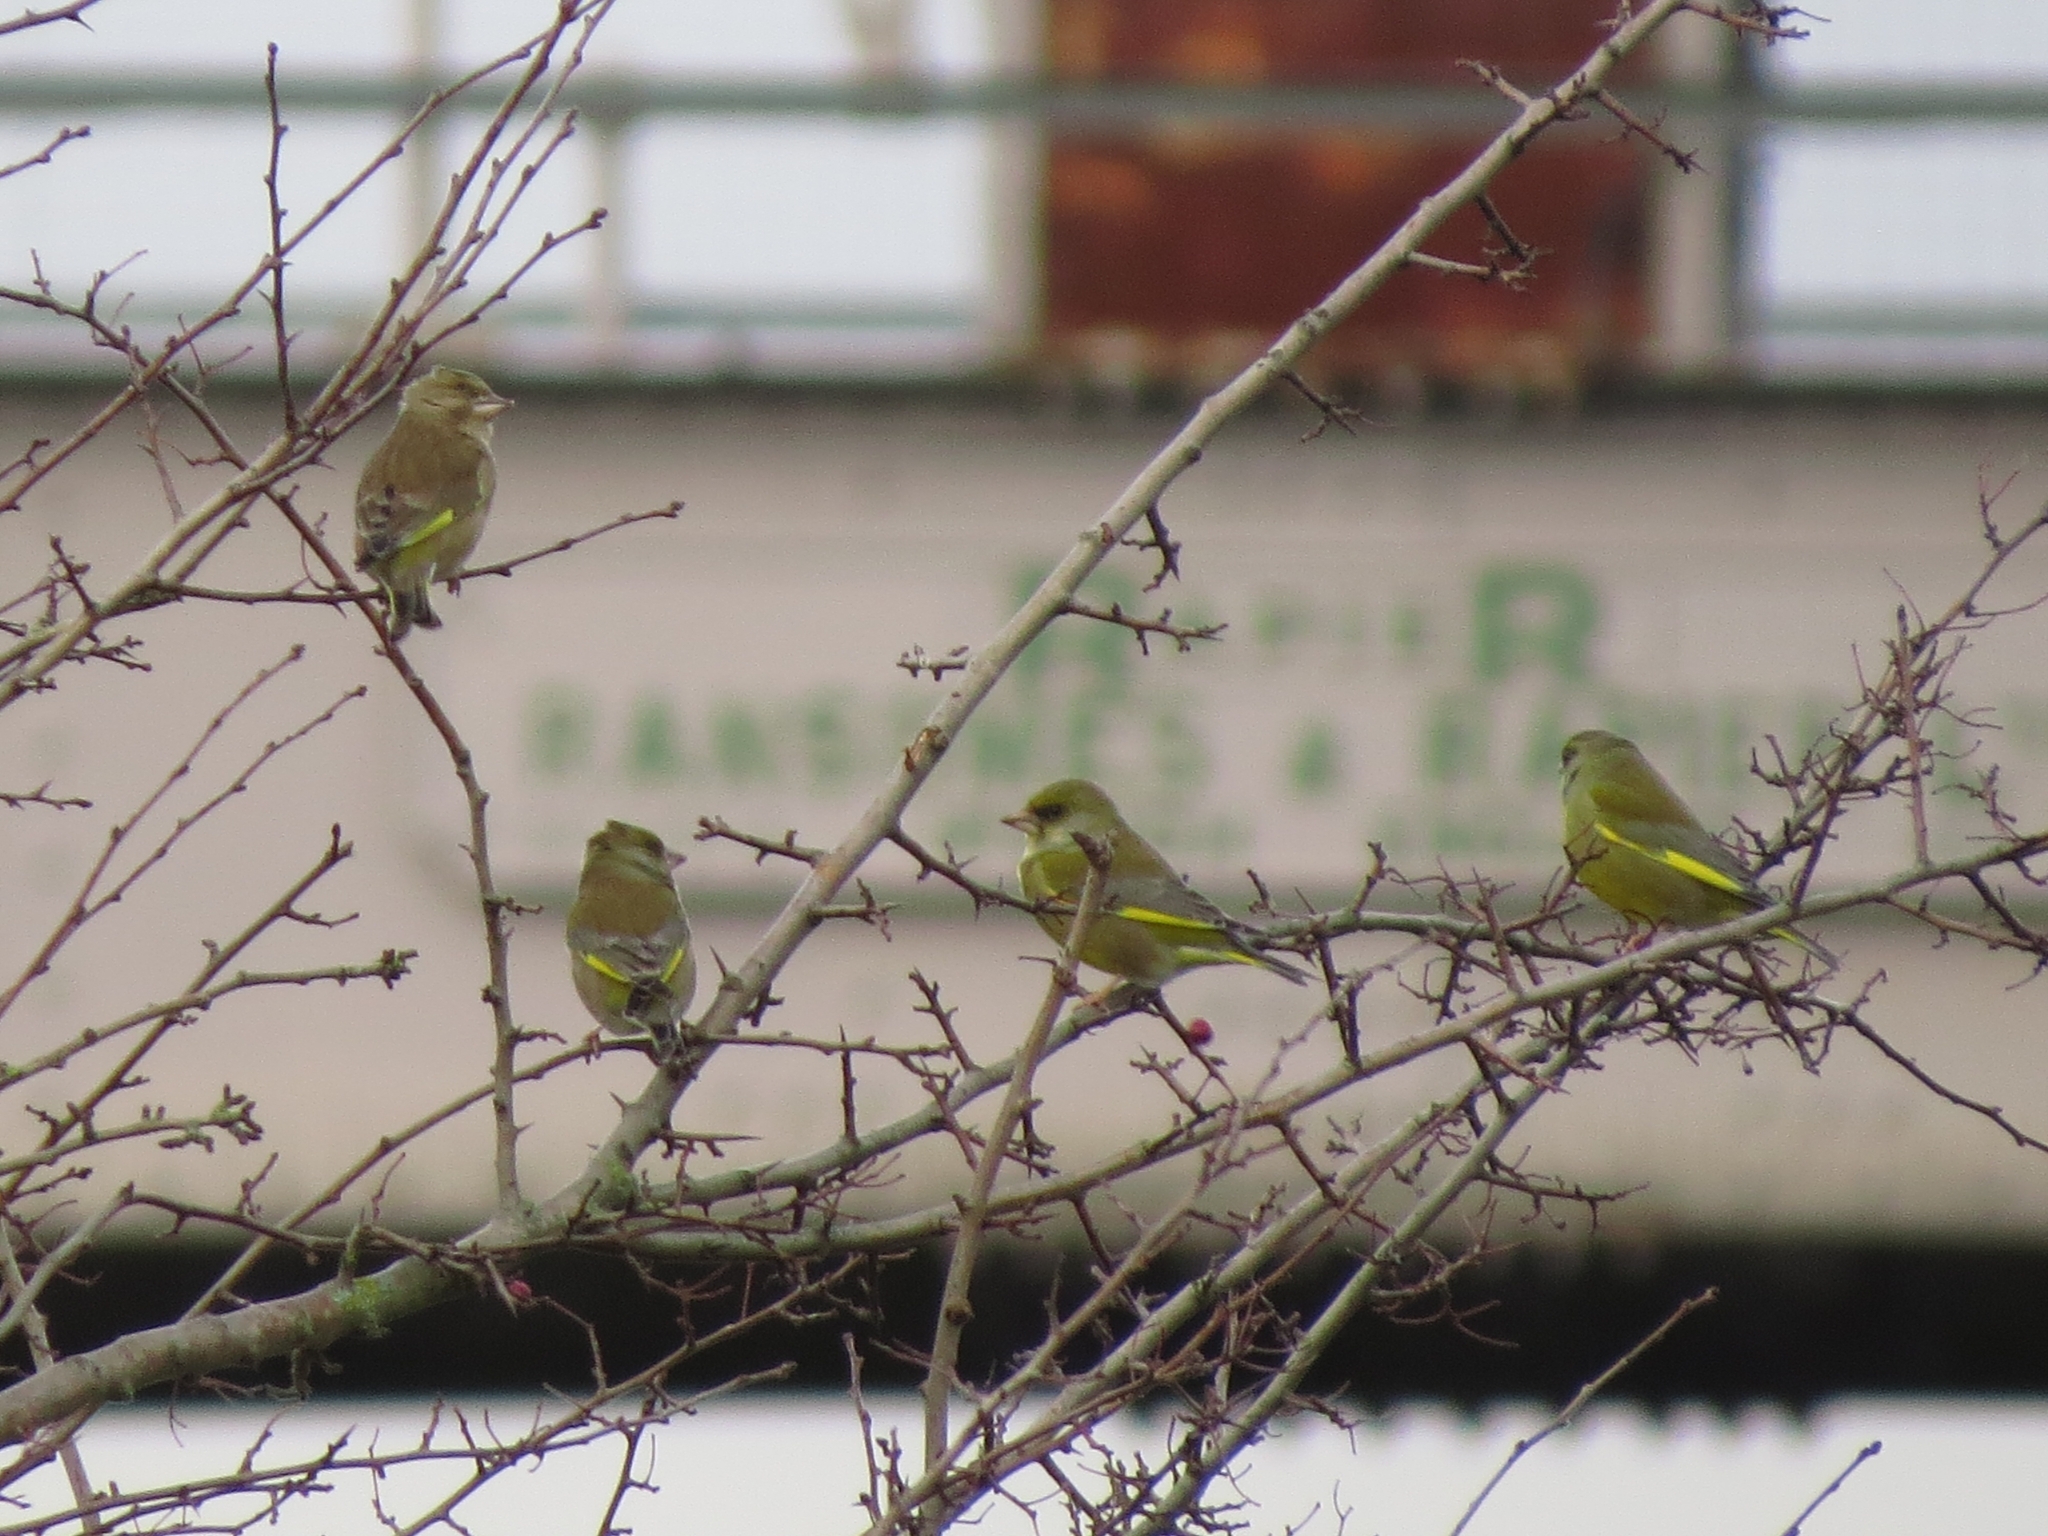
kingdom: Plantae
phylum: Tracheophyta
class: Liliopsida
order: Poales
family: Poaceae
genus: Chloris
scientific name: Chloris chloris
